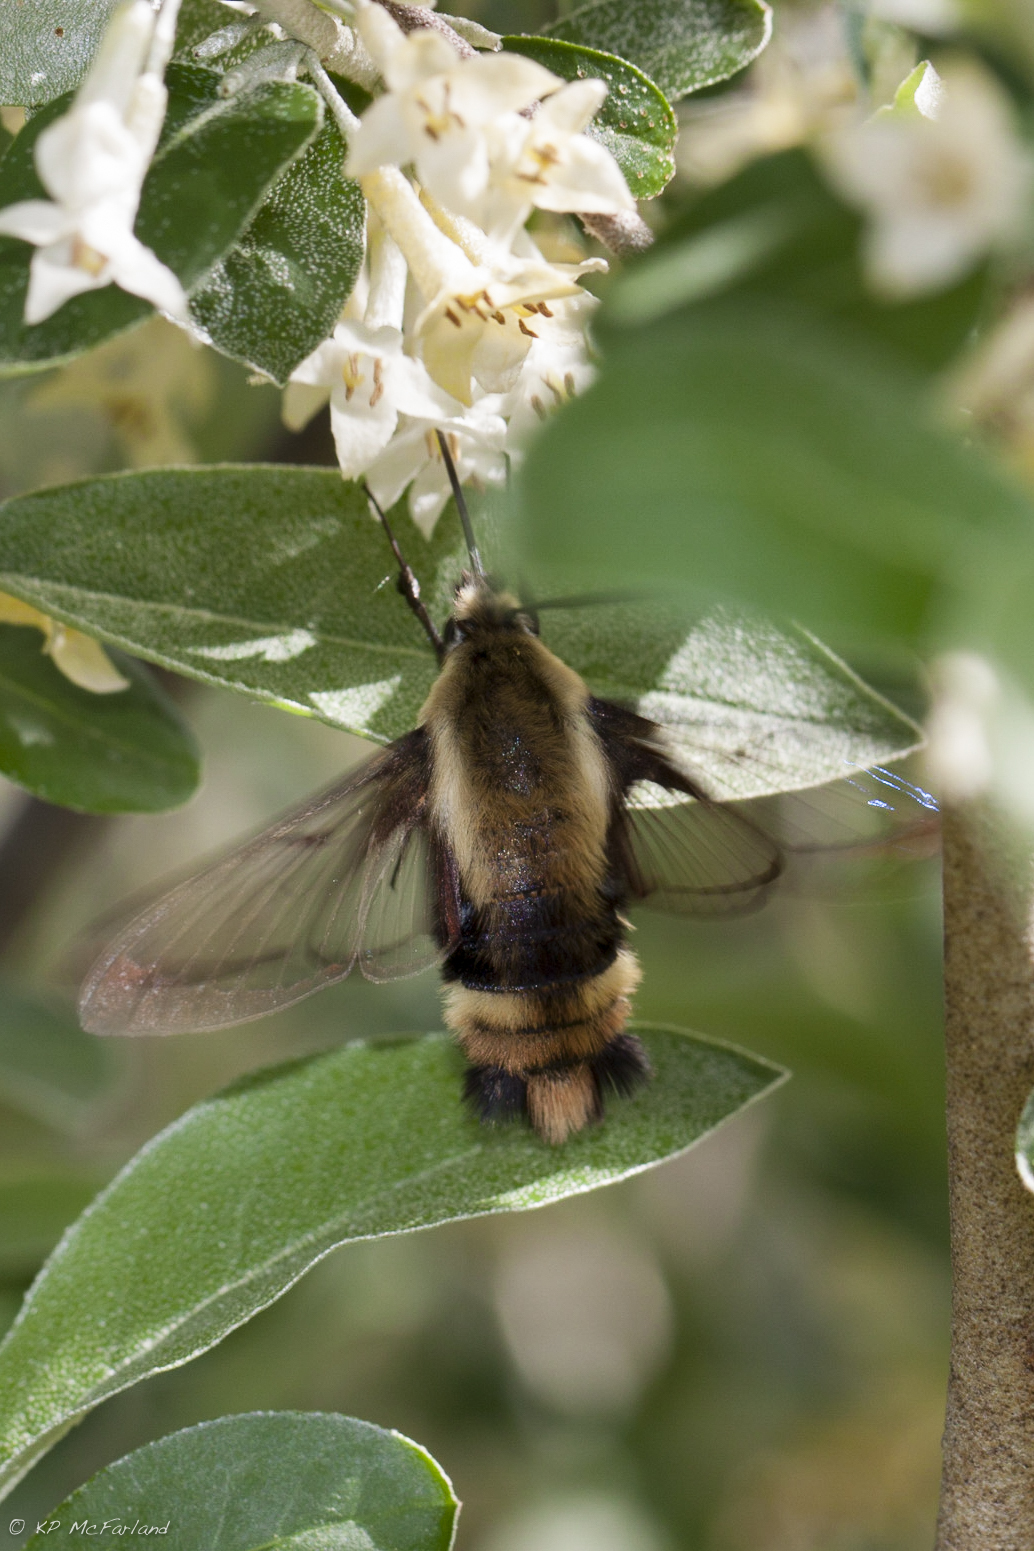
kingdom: Animalia
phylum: Arthropoda
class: Insecta
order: Lepidoptera
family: Sphingidae
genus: Hemaris
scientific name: Hemaris diffinis
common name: Bumblebee moth
